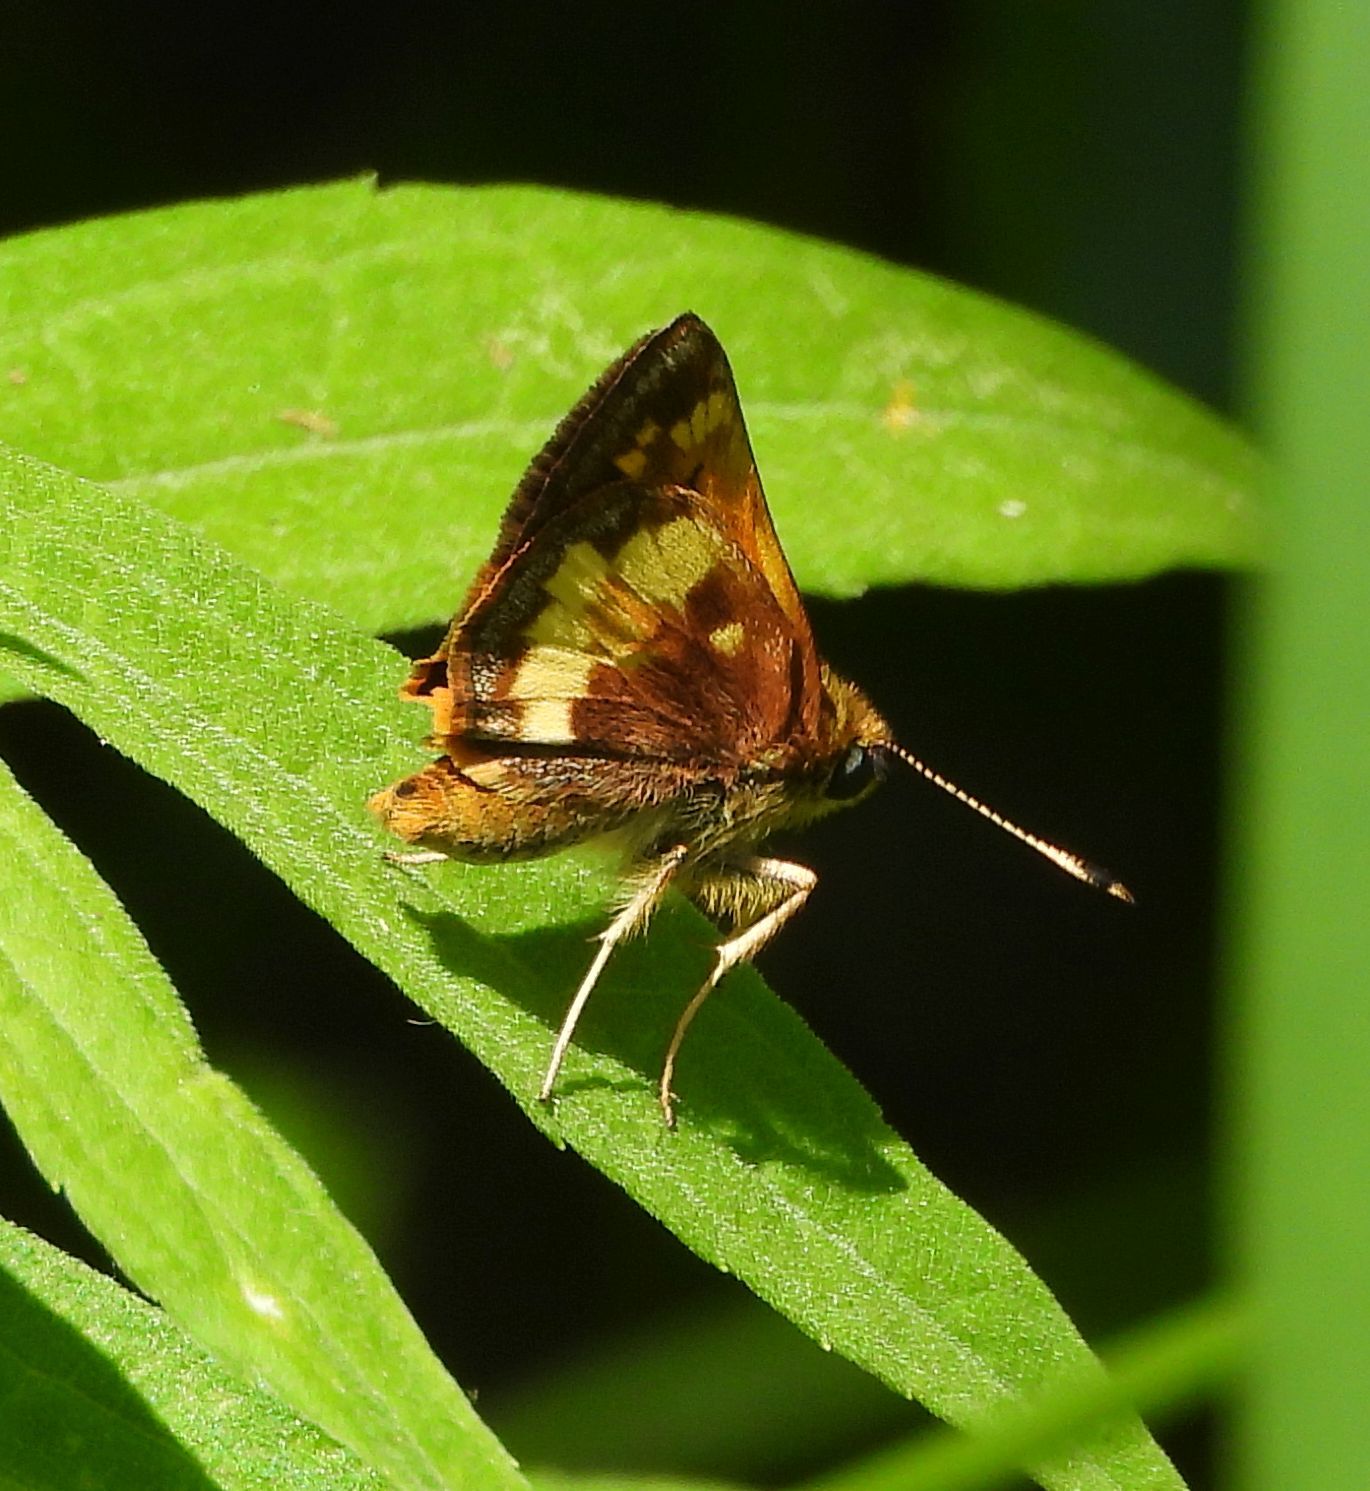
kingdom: Animalia
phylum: Arthropoda
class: Insecta
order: Lepidoptera
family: Hesperiidae
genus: Lon
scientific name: Lon hobomok
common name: Hobomok skipper
